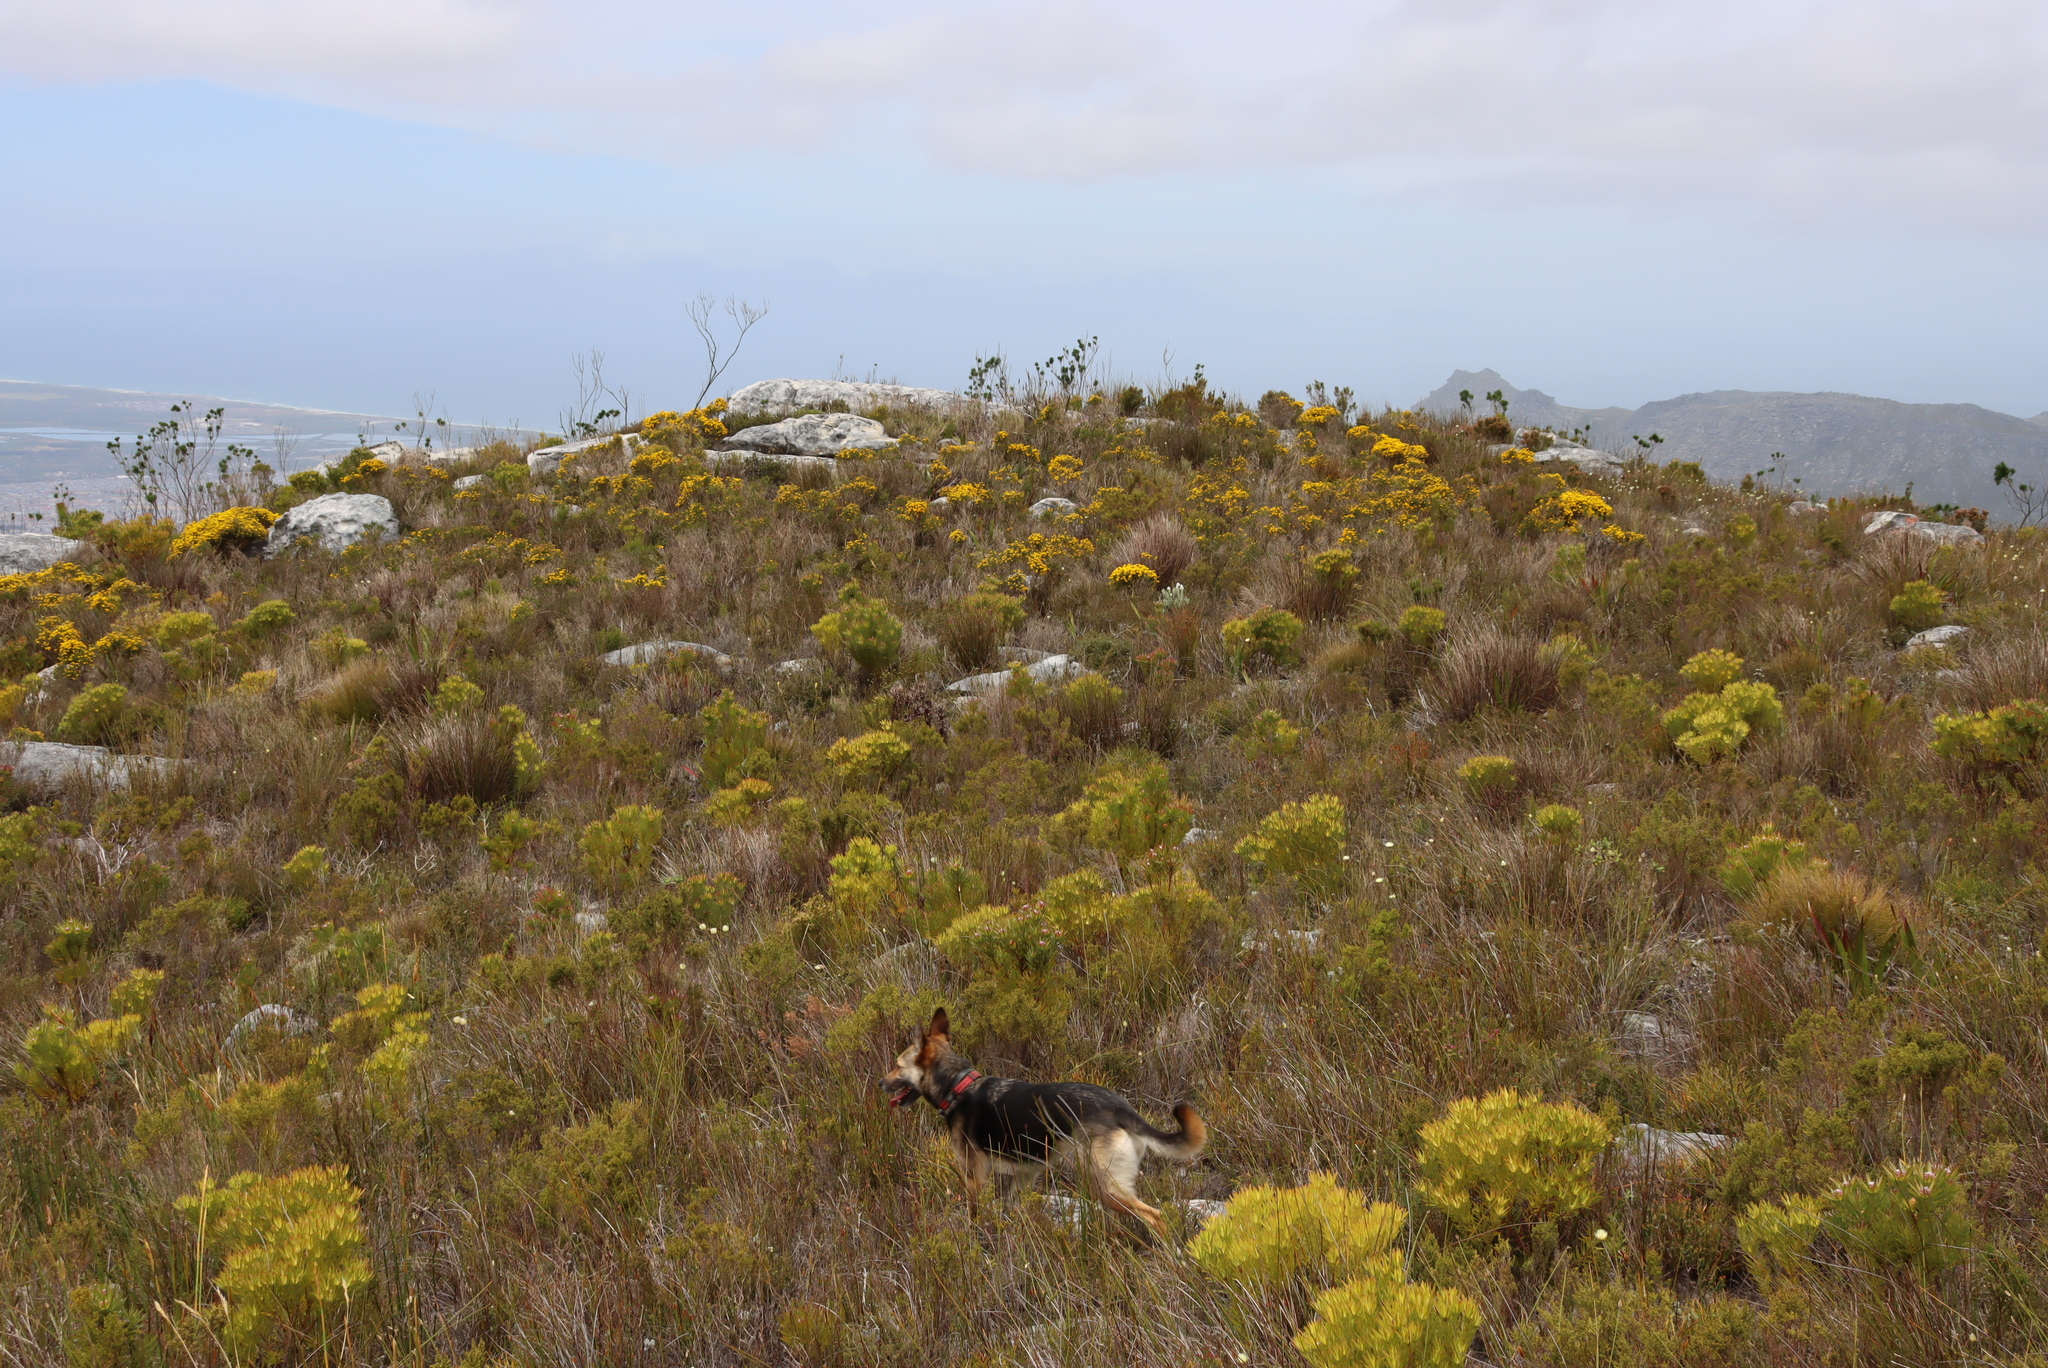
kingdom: Plantae
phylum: Tracheophyta
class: Magnoliopsida
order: Fabales
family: Fabaceae
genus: Aspalathus
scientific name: Aspalathus carnosa
